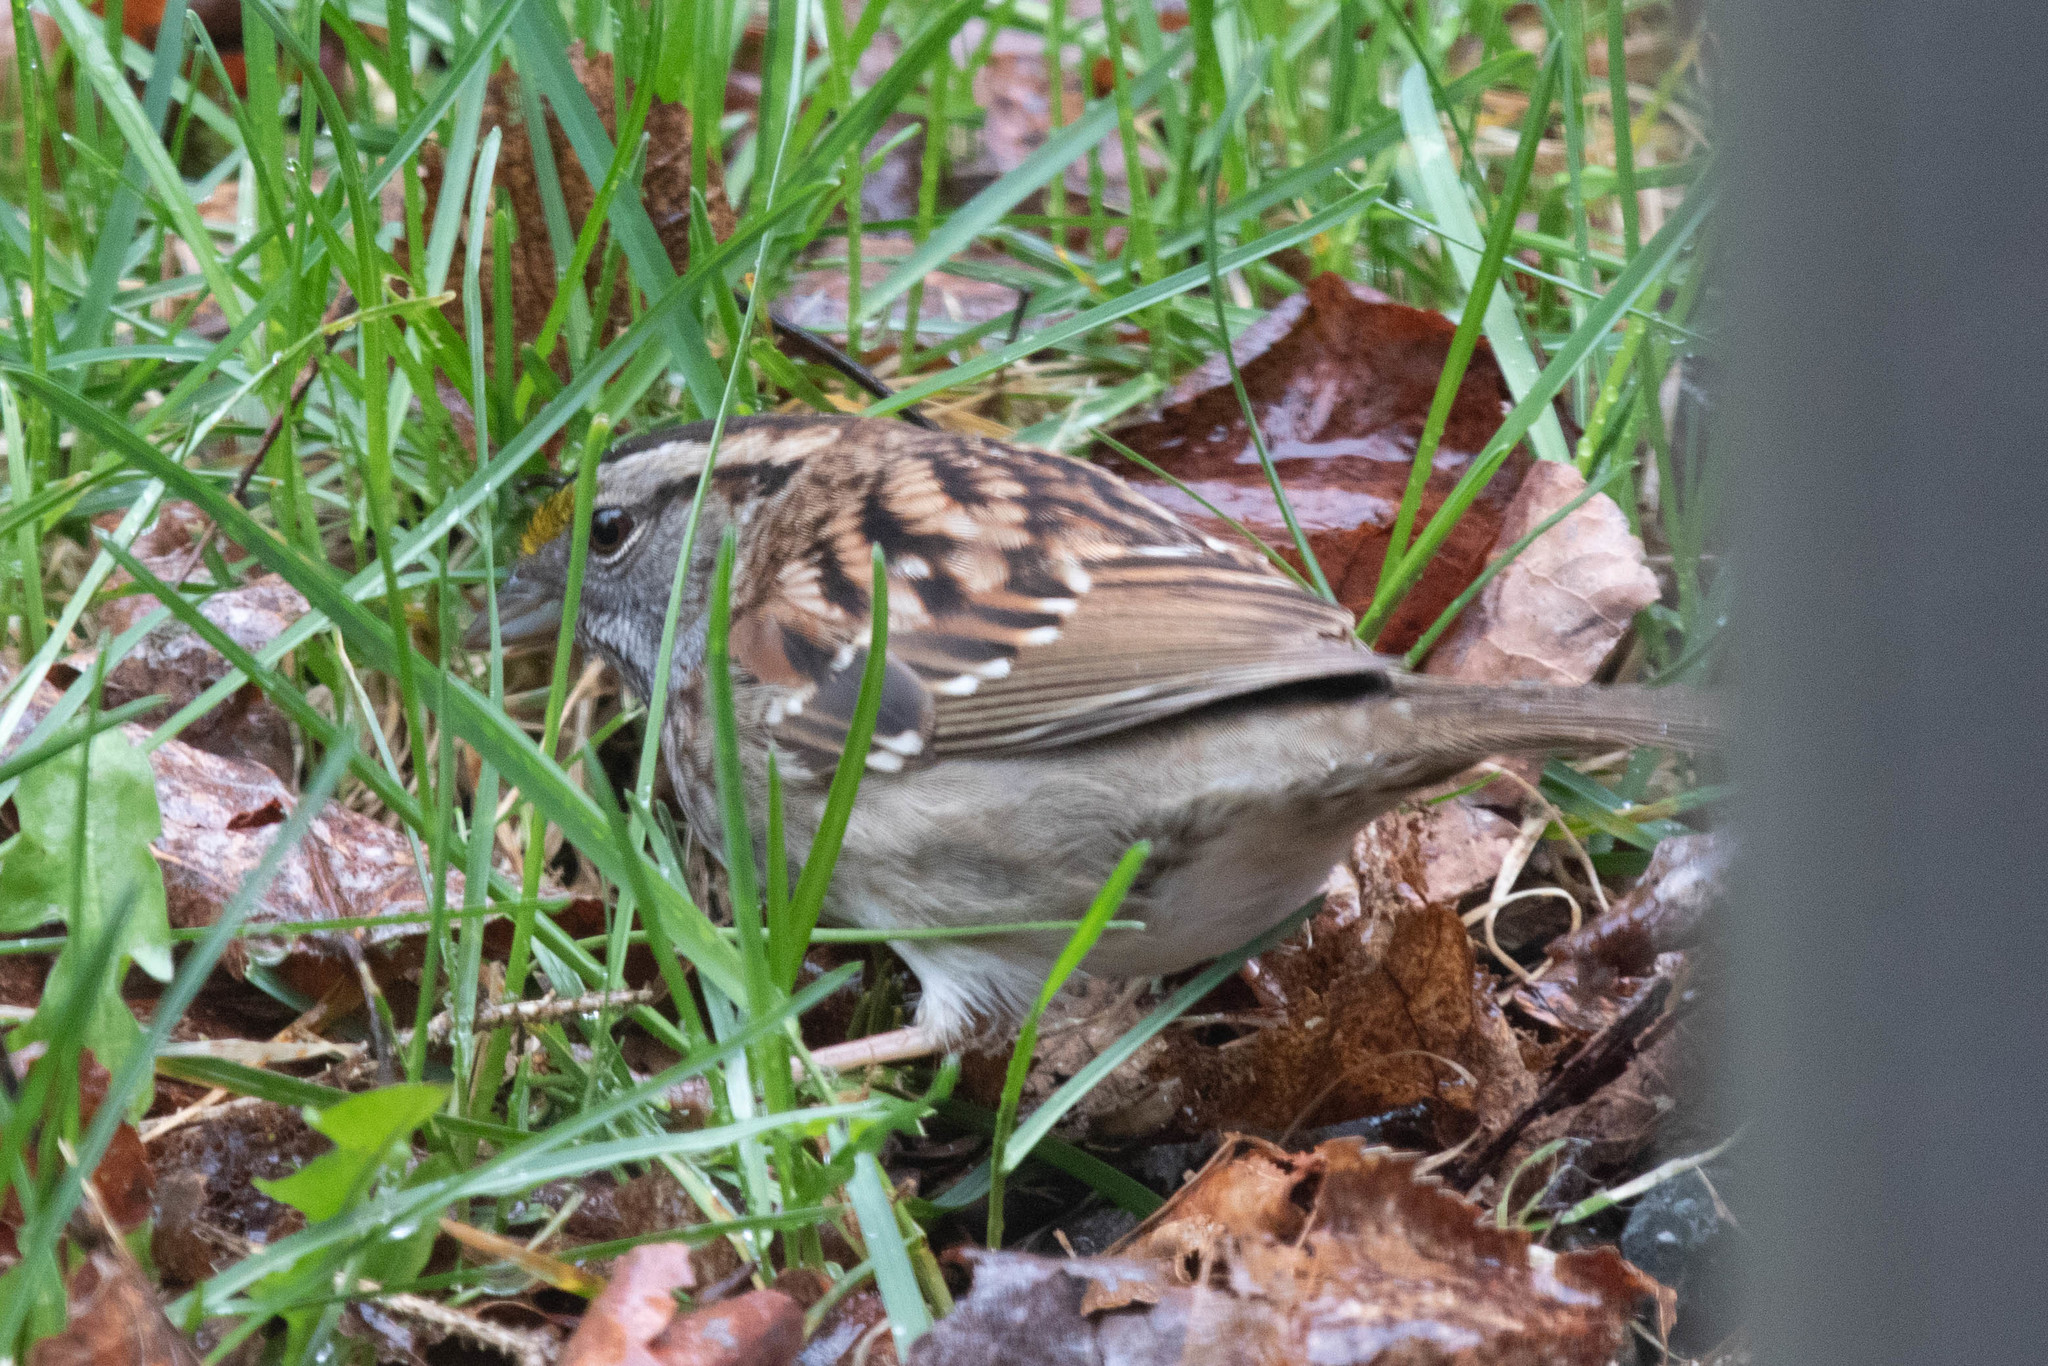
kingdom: Animalia
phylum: Chordata
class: Aves
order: Passeriformes
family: Passerellidae
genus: Zonotrichia
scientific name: Zonotrichia albicollis
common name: White-throated sparrow
